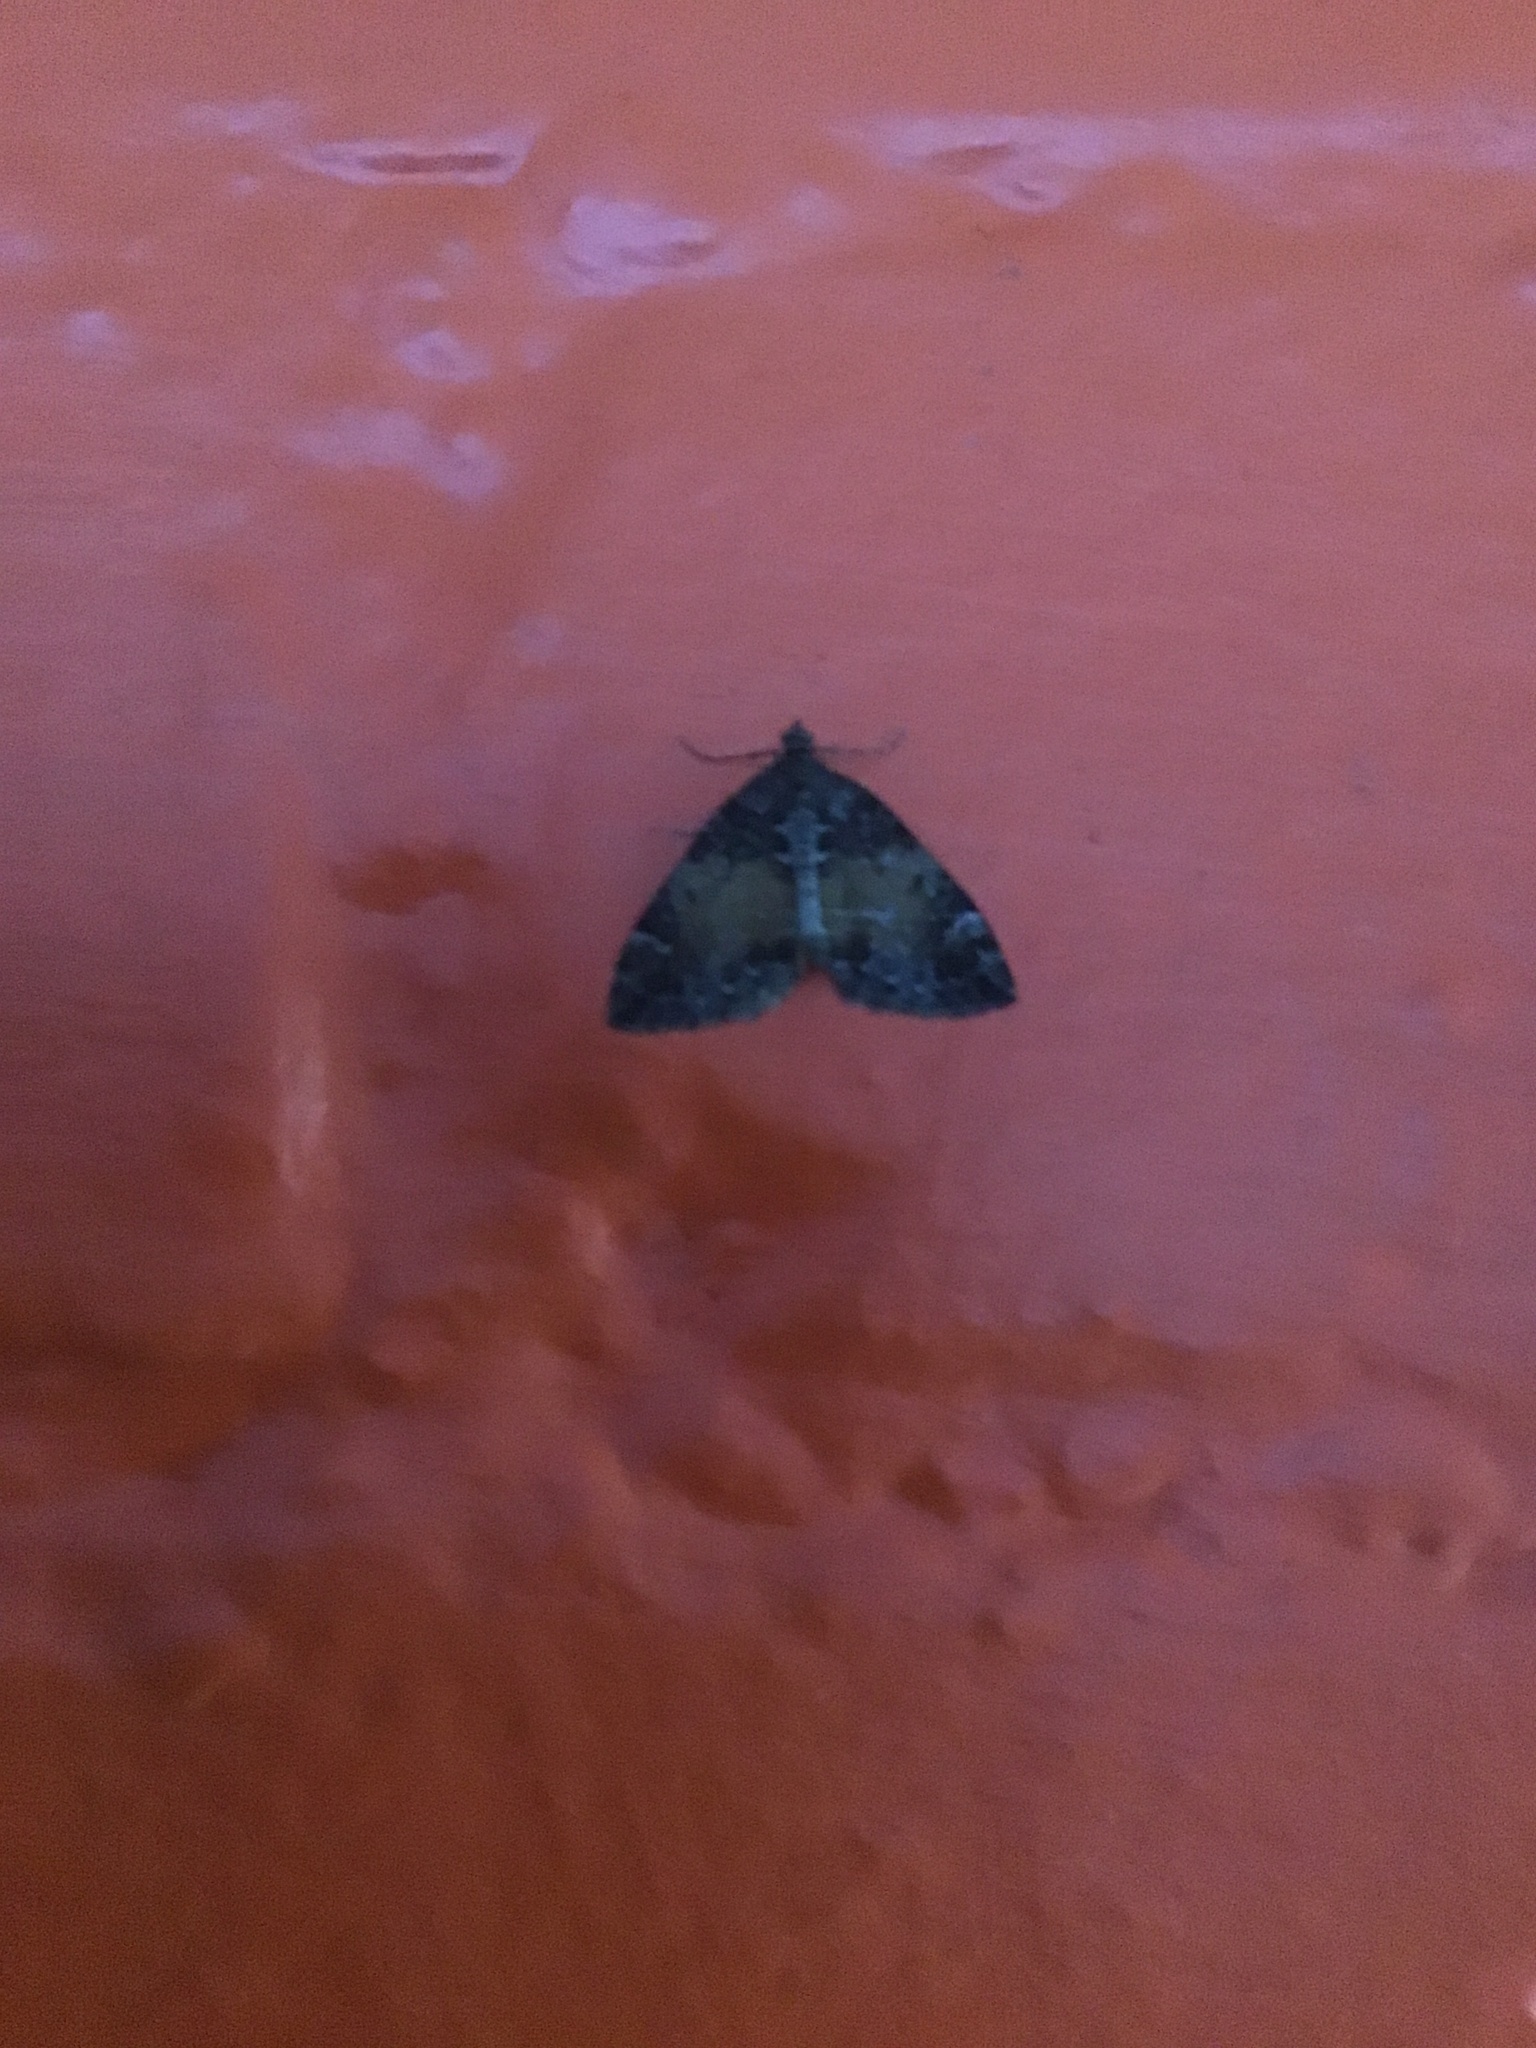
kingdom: Animalia
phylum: Arthropoda
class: Insecta
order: Lepidoptera
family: Geometridae
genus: Dysstroma
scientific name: Dysstroma truncata
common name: Common marbled carpet
